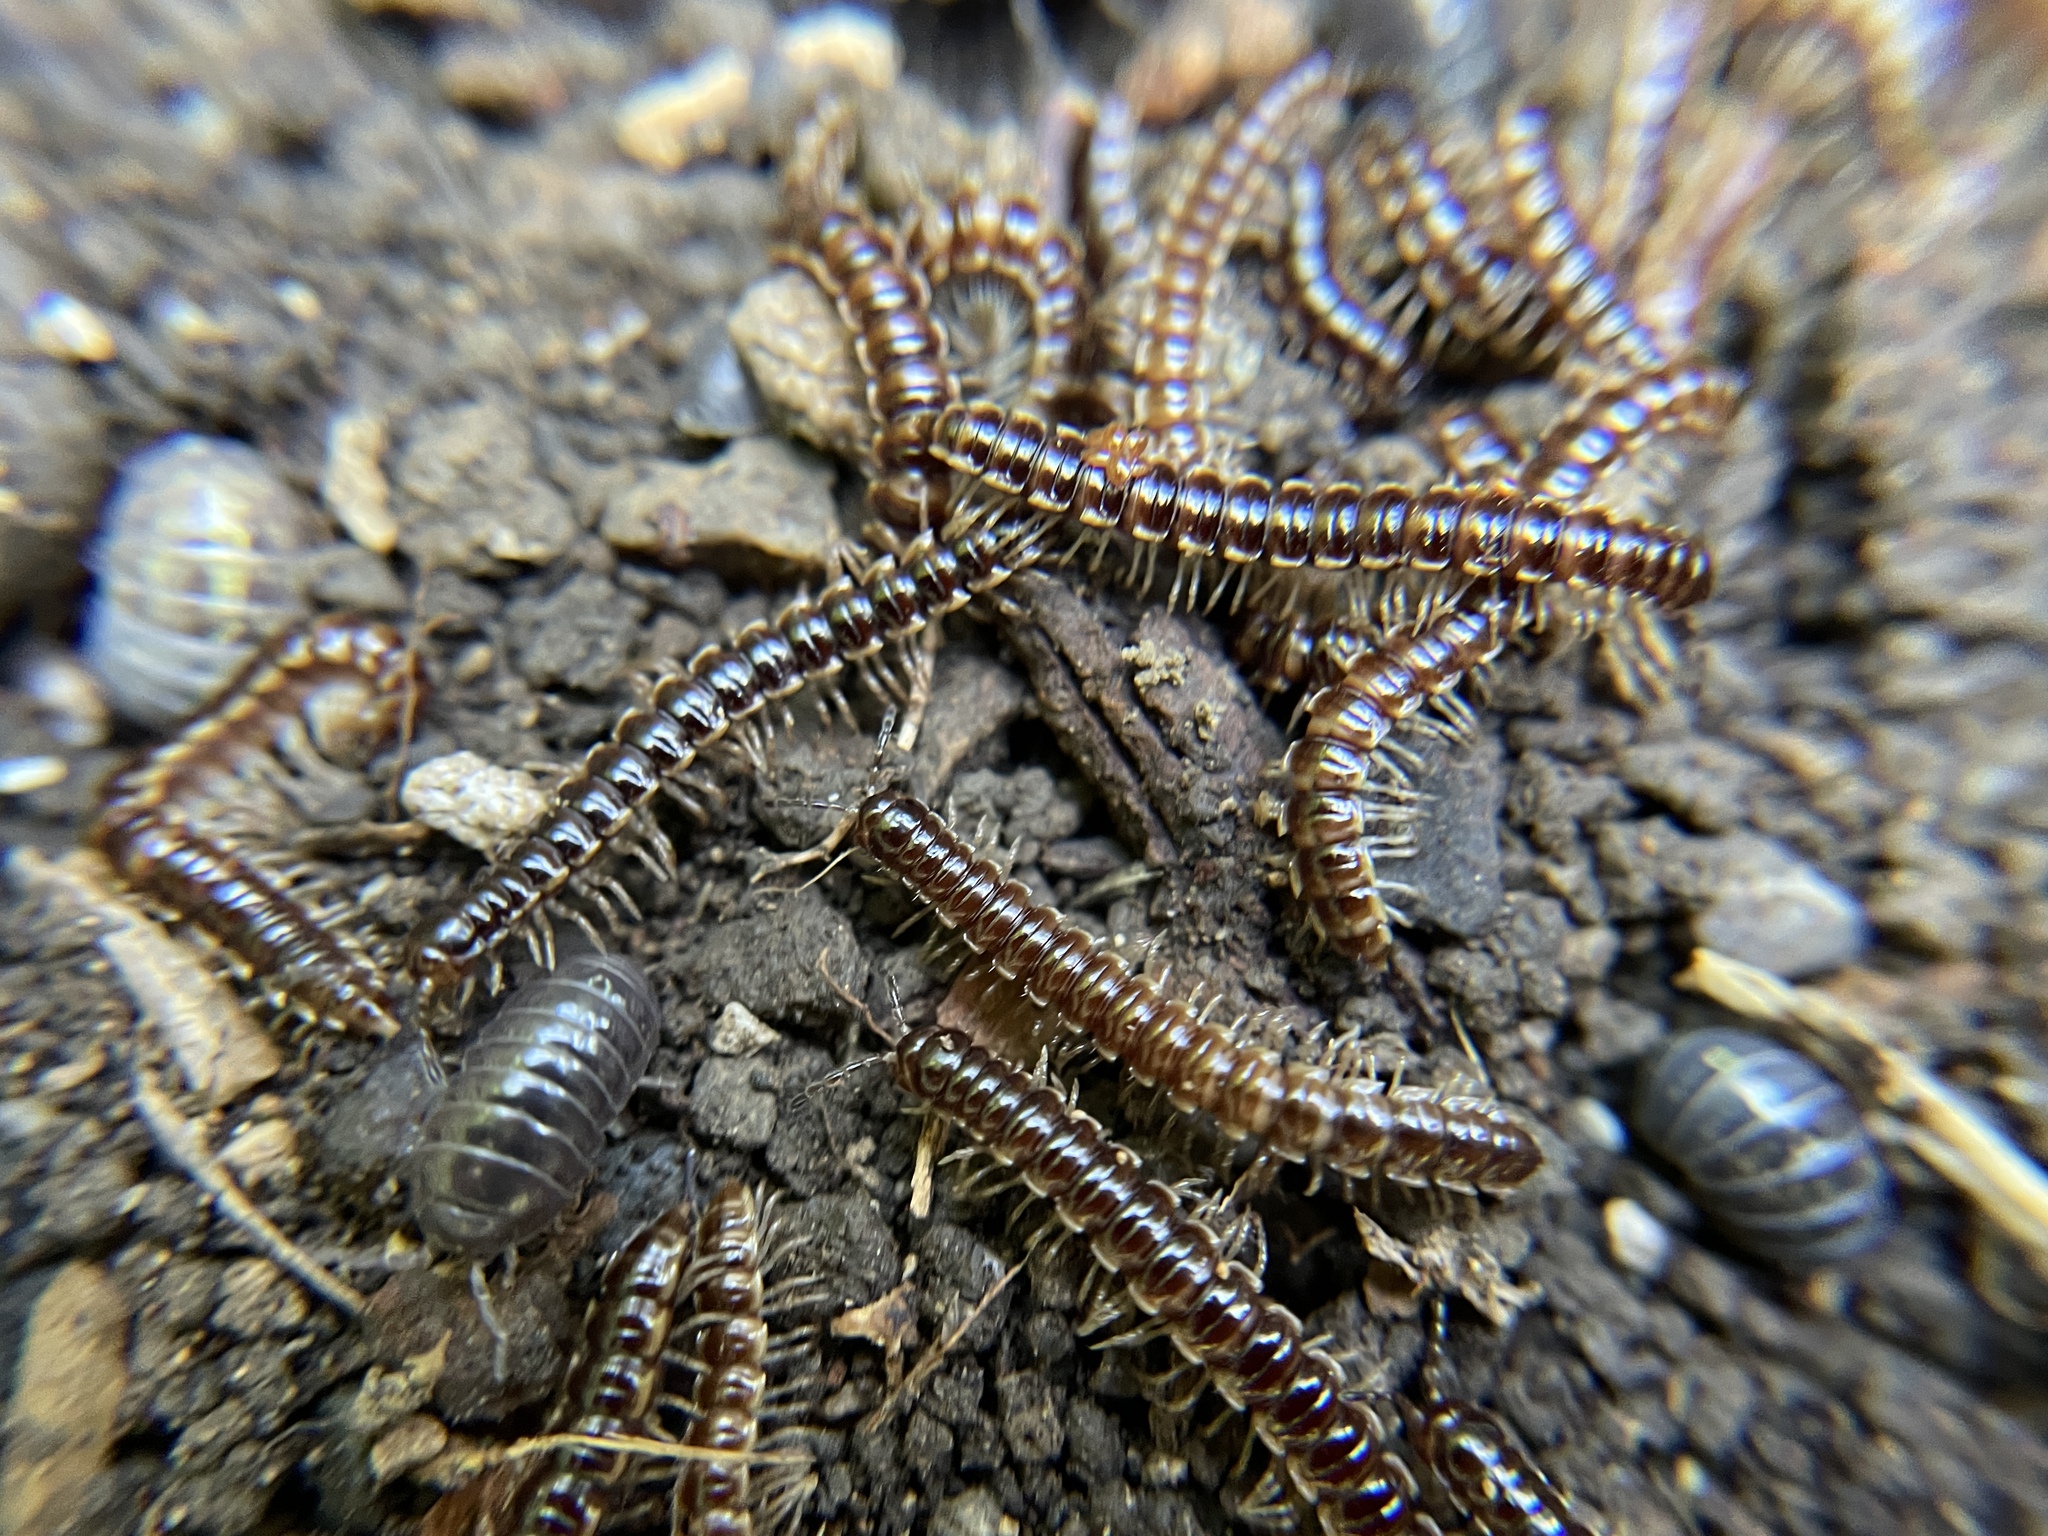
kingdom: Animalia
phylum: Arthropoda
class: Diplopoda
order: Polydesmida
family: Paradoxosomatidae
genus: Oxidus
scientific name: Oxidus gracilis
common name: Greenhouse millipede
